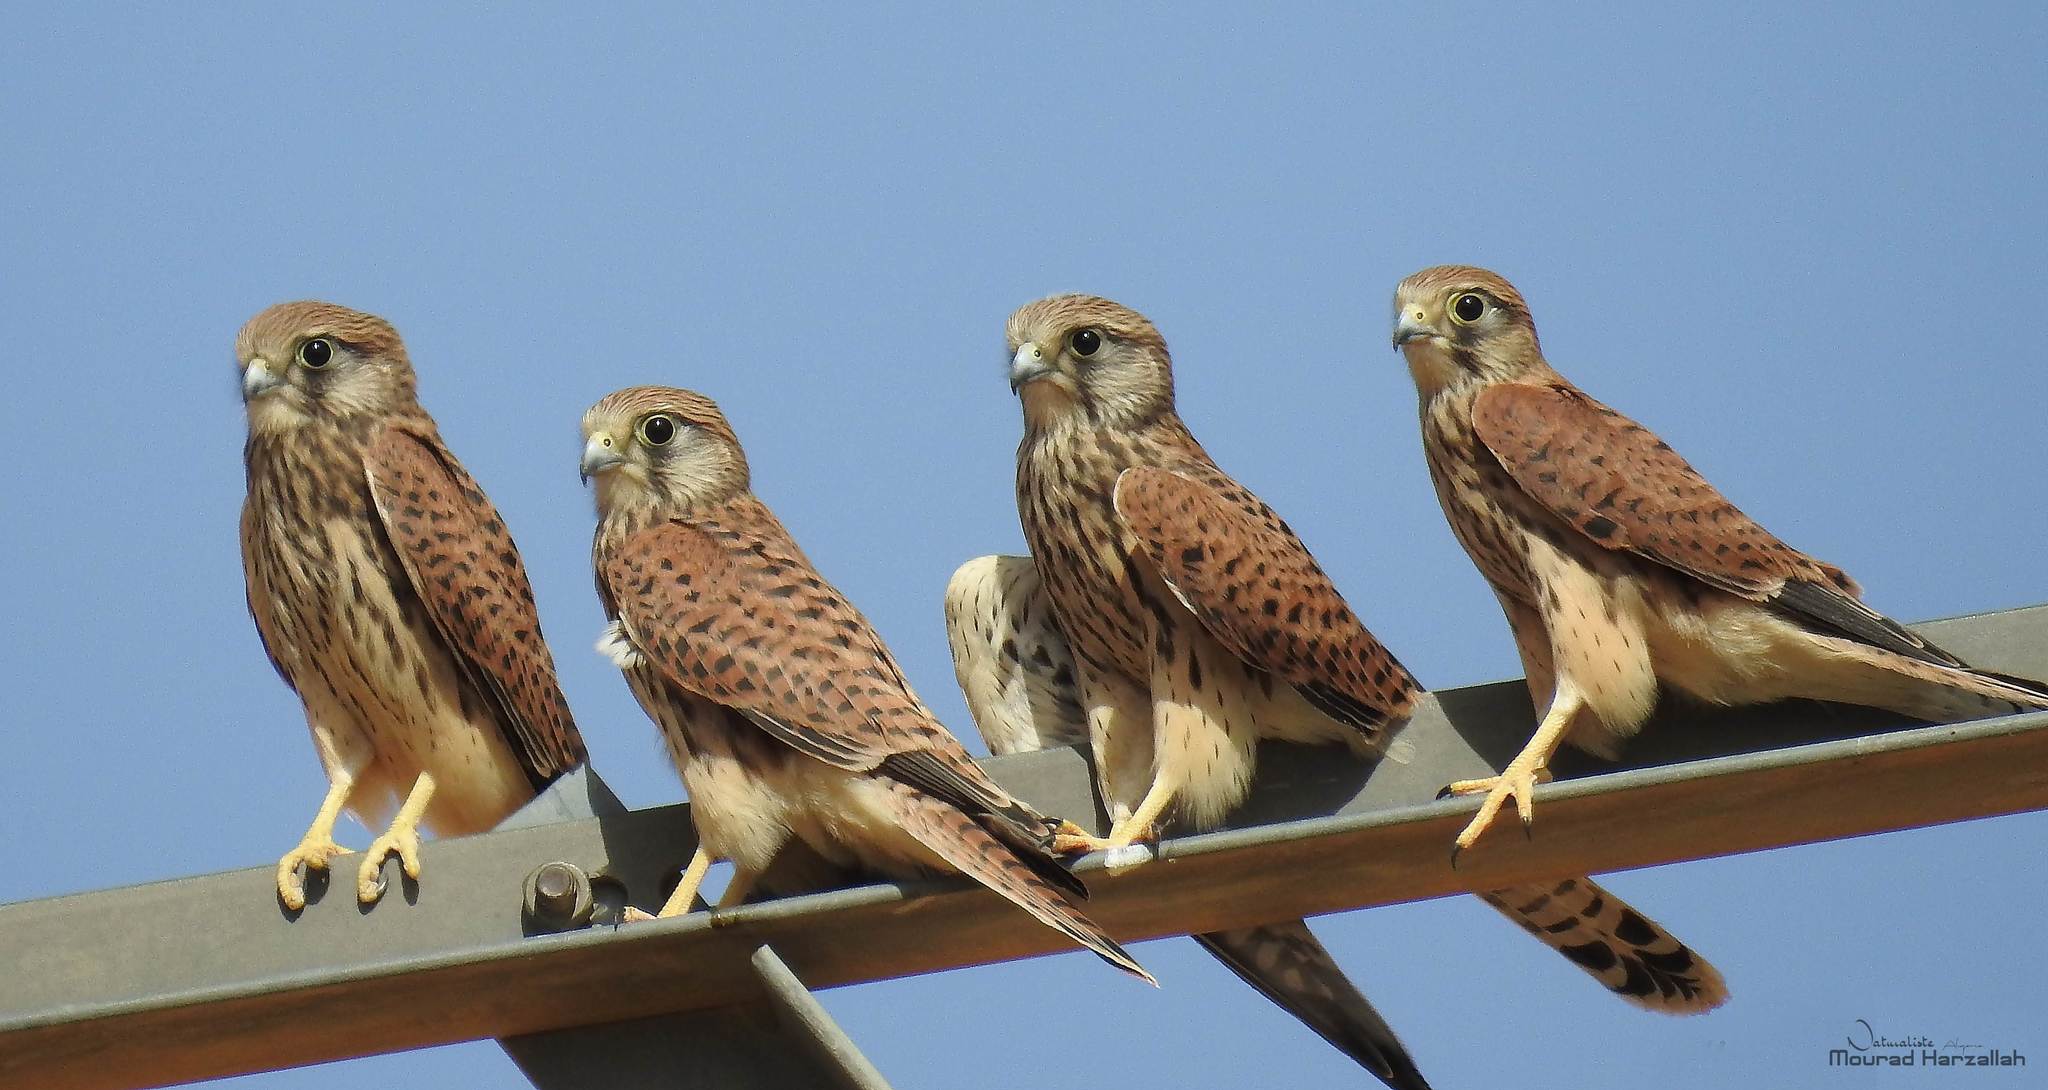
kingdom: Animalia
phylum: Chordata
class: Aves
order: Falconiformes
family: Falconidae
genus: Falco
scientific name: Falco tinnunculus
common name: Common kestrel
